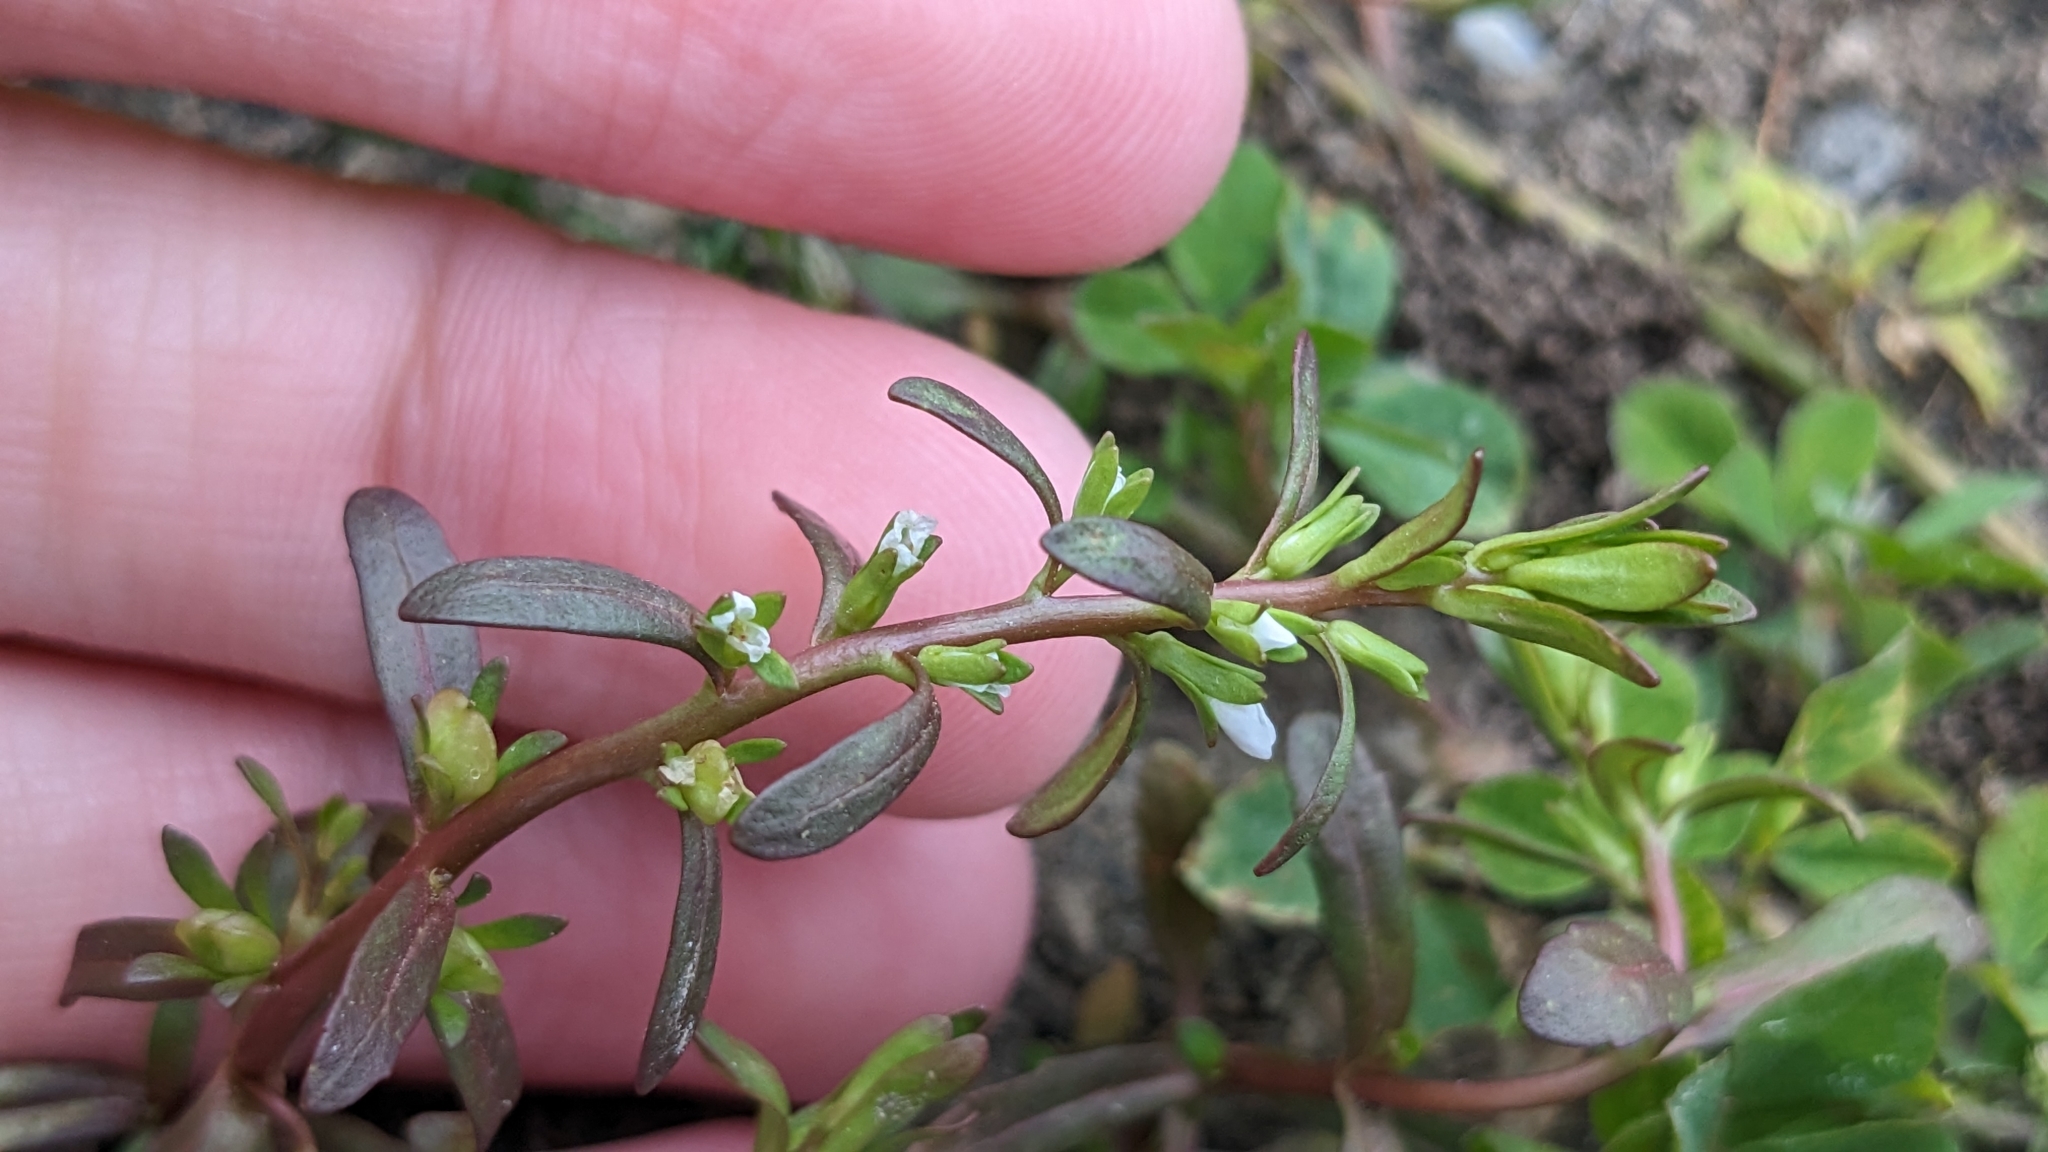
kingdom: Plantae
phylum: Tracheophyta
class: Magnoliopsida
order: Lamiales
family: Plantaginaceae
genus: Veronica
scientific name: Veronica peregrina
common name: Neckweed
